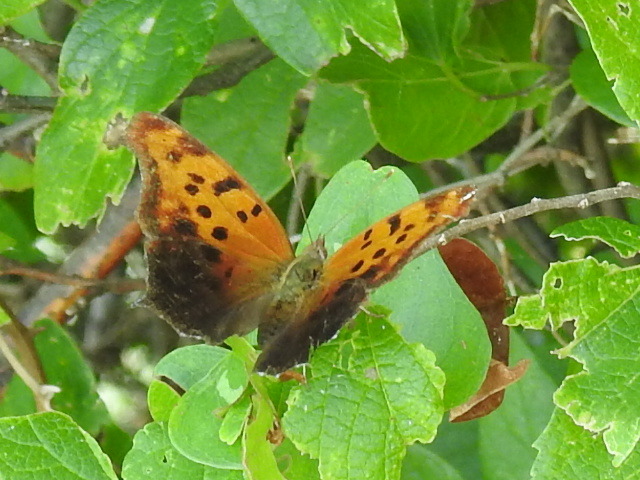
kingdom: Animalia
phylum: Arthropoda
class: Insecta
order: Lepidoptera
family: Nymphalidae
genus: Polygonia
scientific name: Polygonia interrogationis
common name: Question mark
